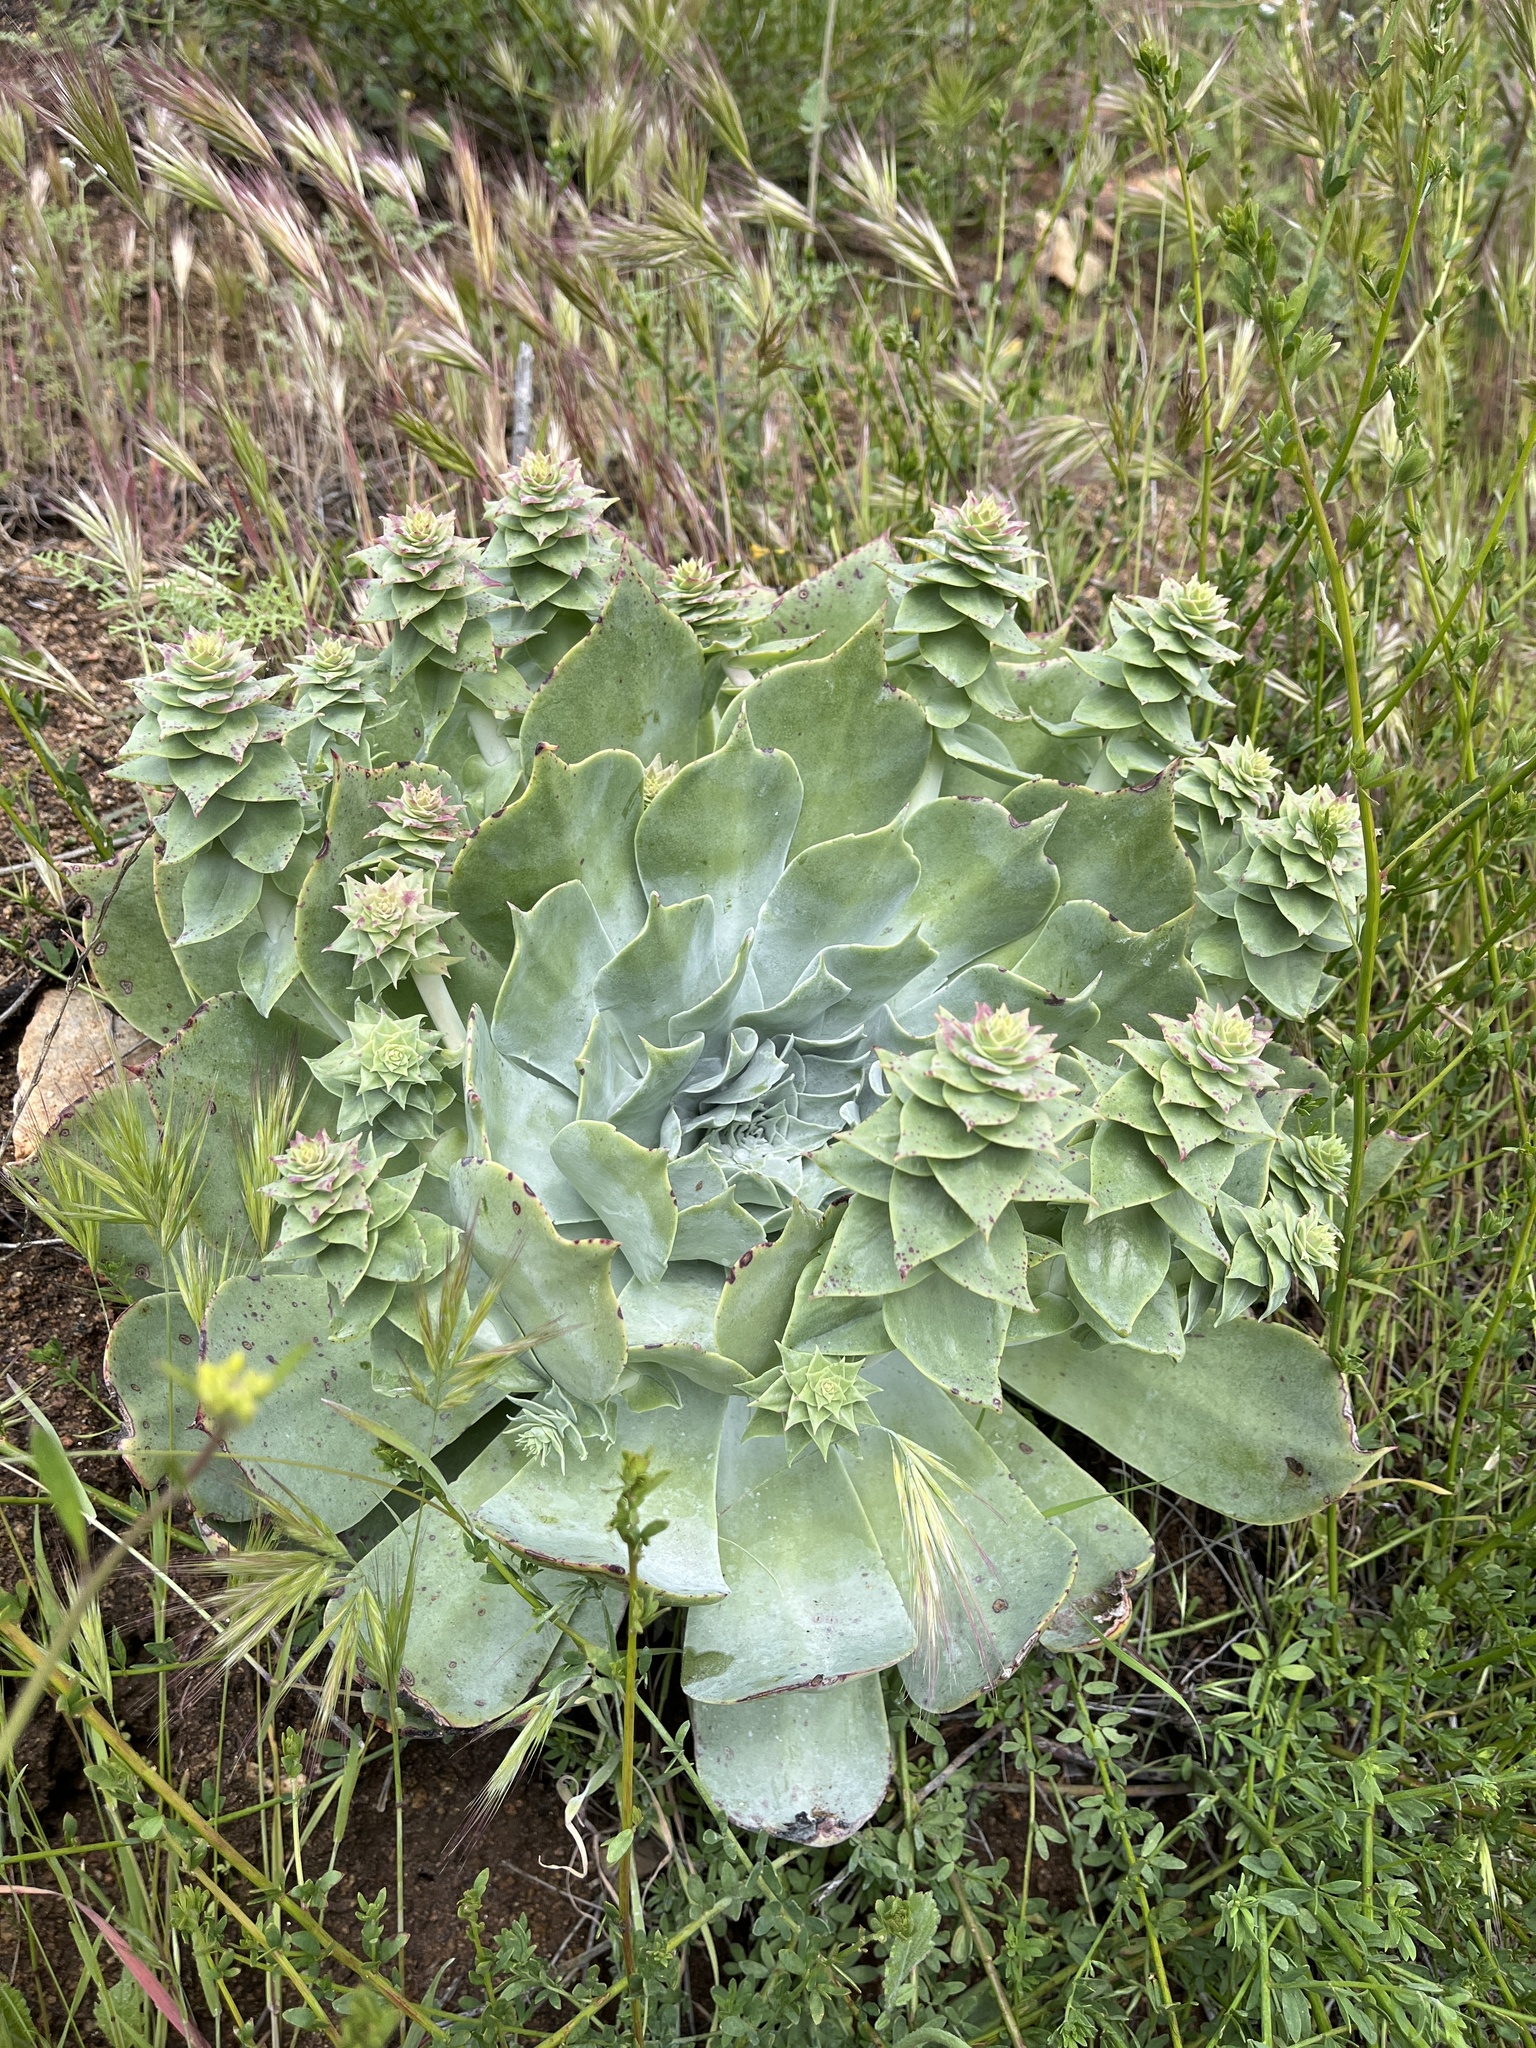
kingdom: Plantae
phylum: Tracheophyta
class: Magnoliopsida
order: Saxifragales
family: Crassulaceae
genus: Dudleya
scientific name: Dudleya pulverulenta
